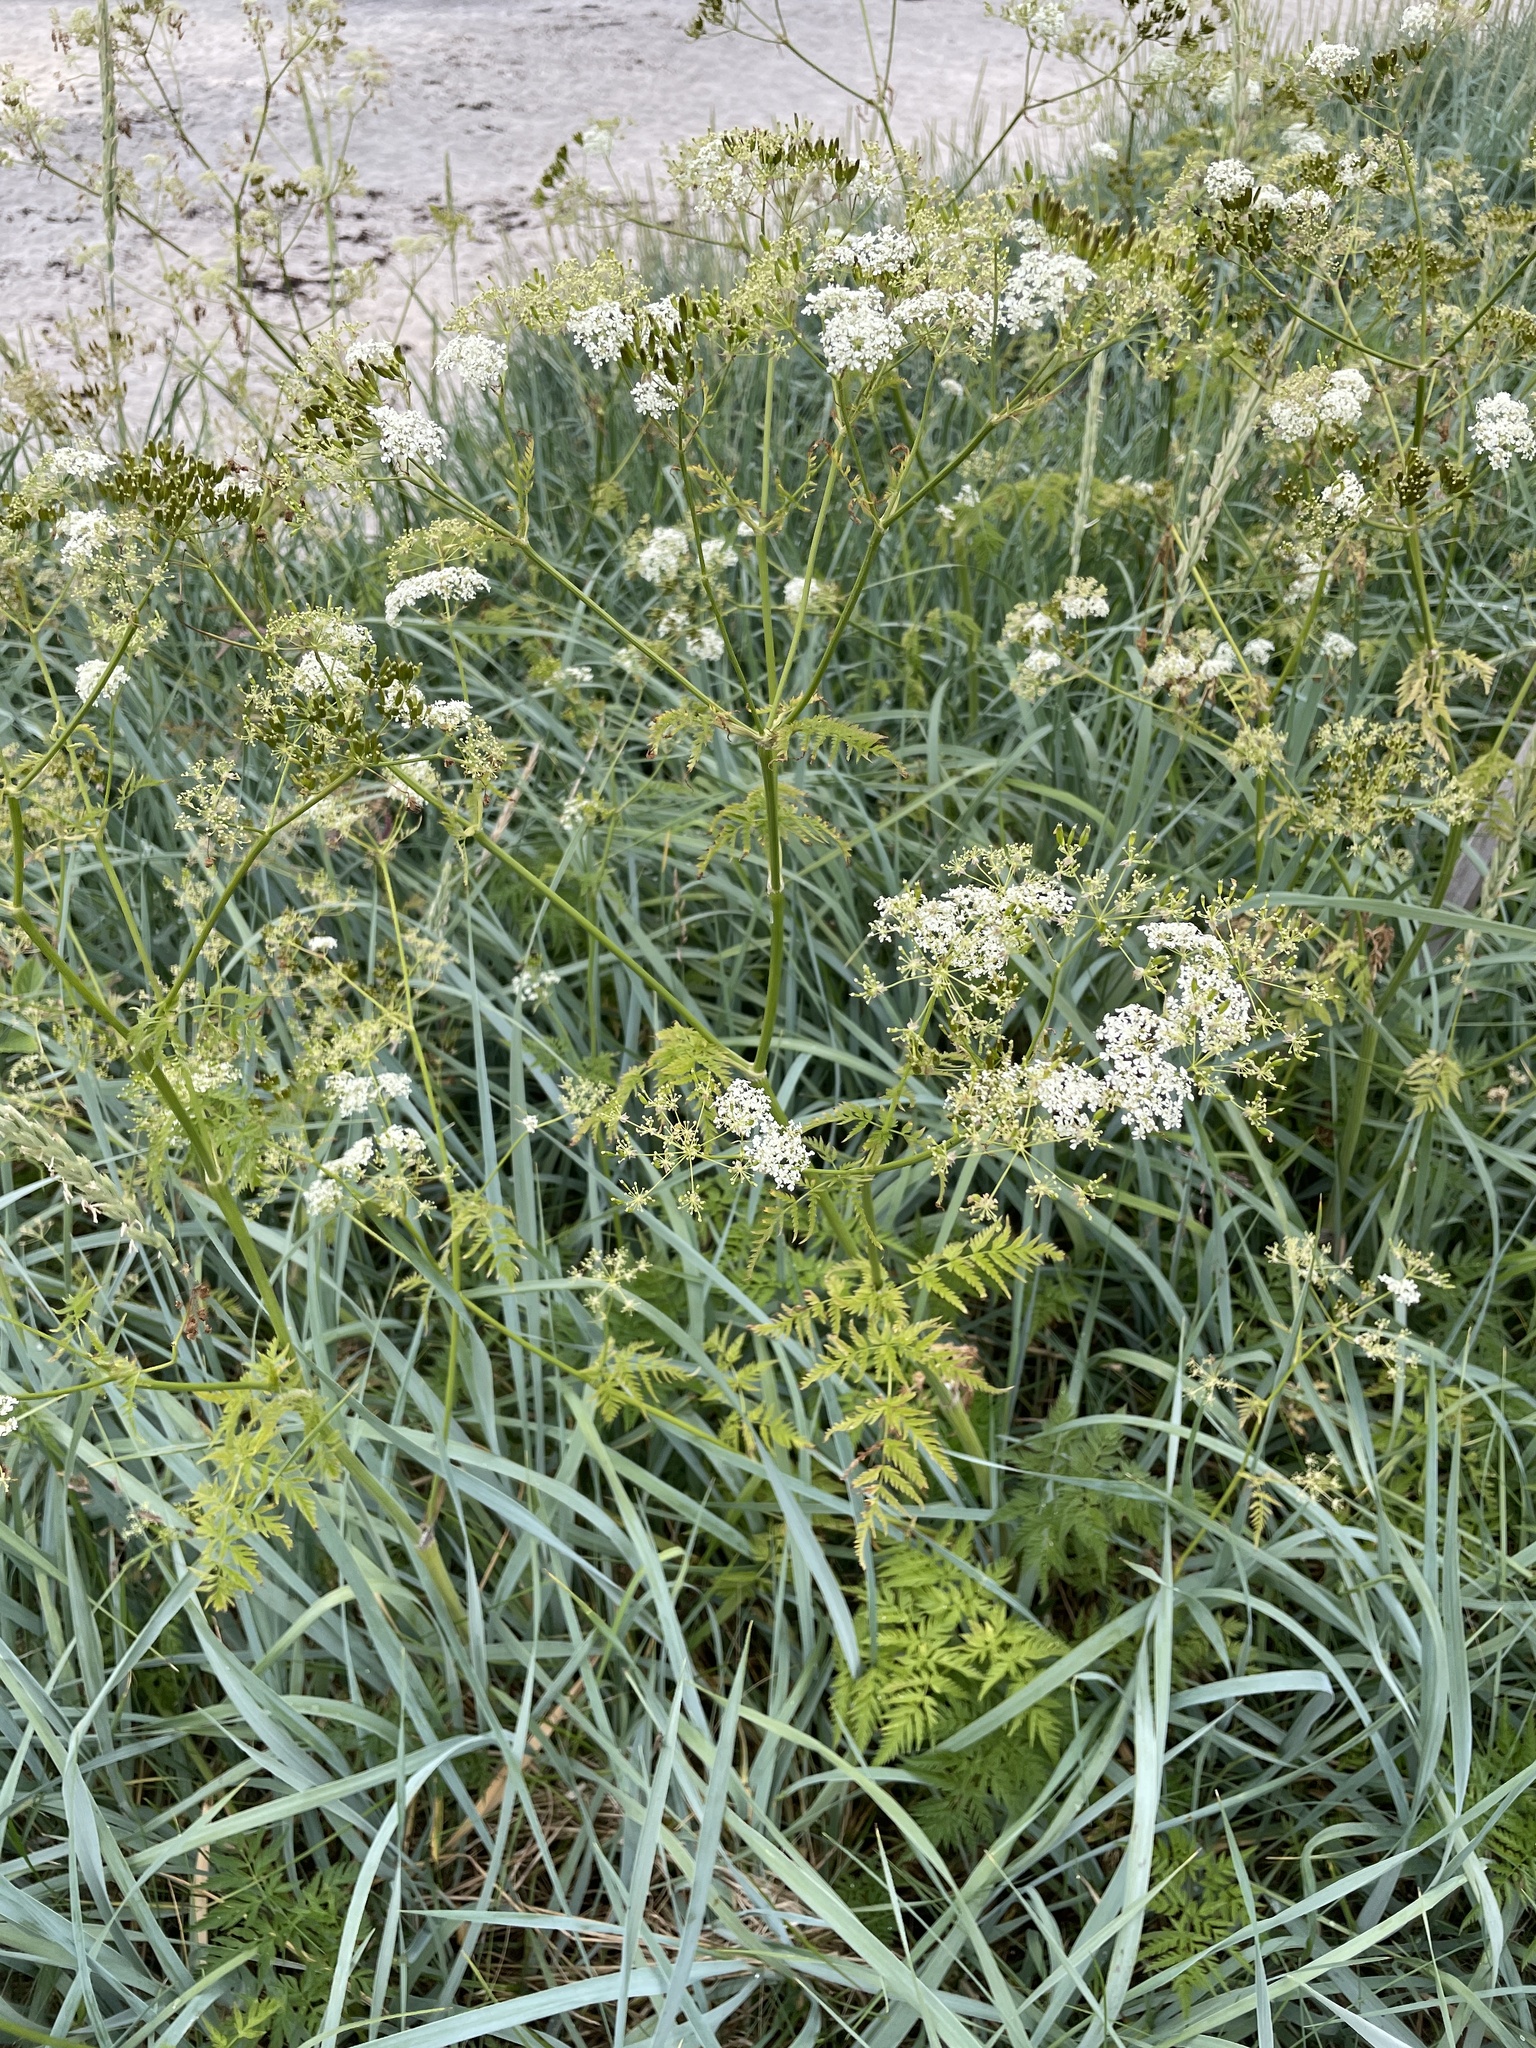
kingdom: Plantae
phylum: Tracheophyta
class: Magnoliopsida
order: Apiales
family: Apiaceae
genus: Anthriscus
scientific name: Anthriscus sylvestris
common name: Cow parsley
